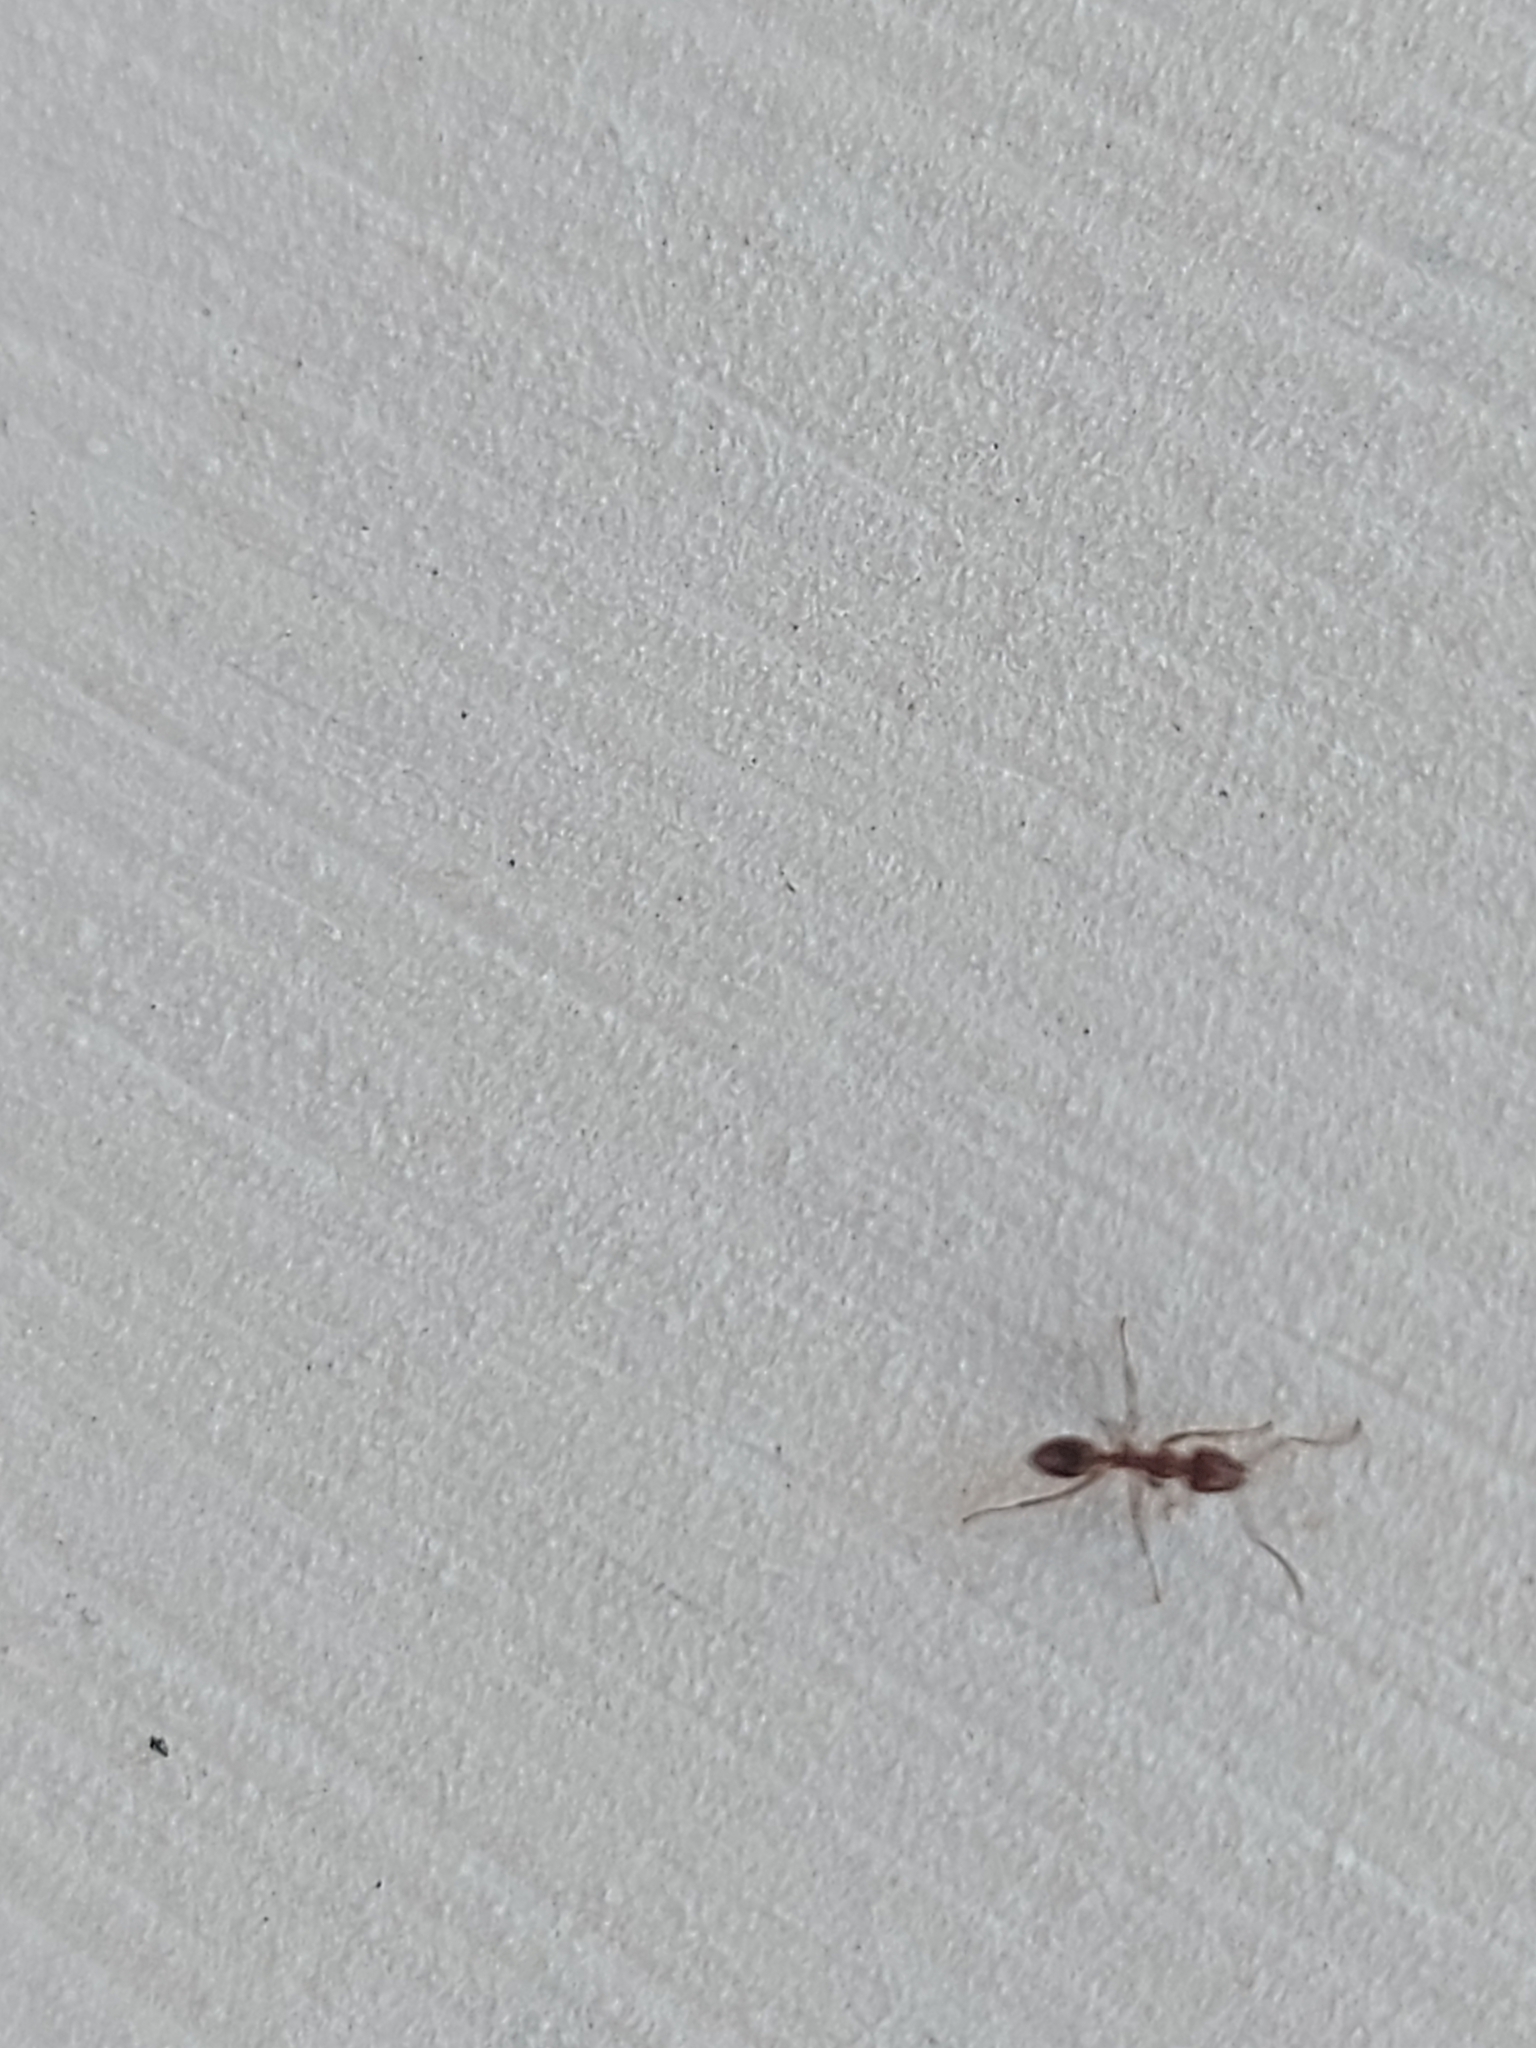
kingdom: Animalia
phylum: Arthropoda
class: Insecta
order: Hymenoptera
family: Formicidae
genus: Linepithema
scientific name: Linepithema humile
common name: Argentine ant
